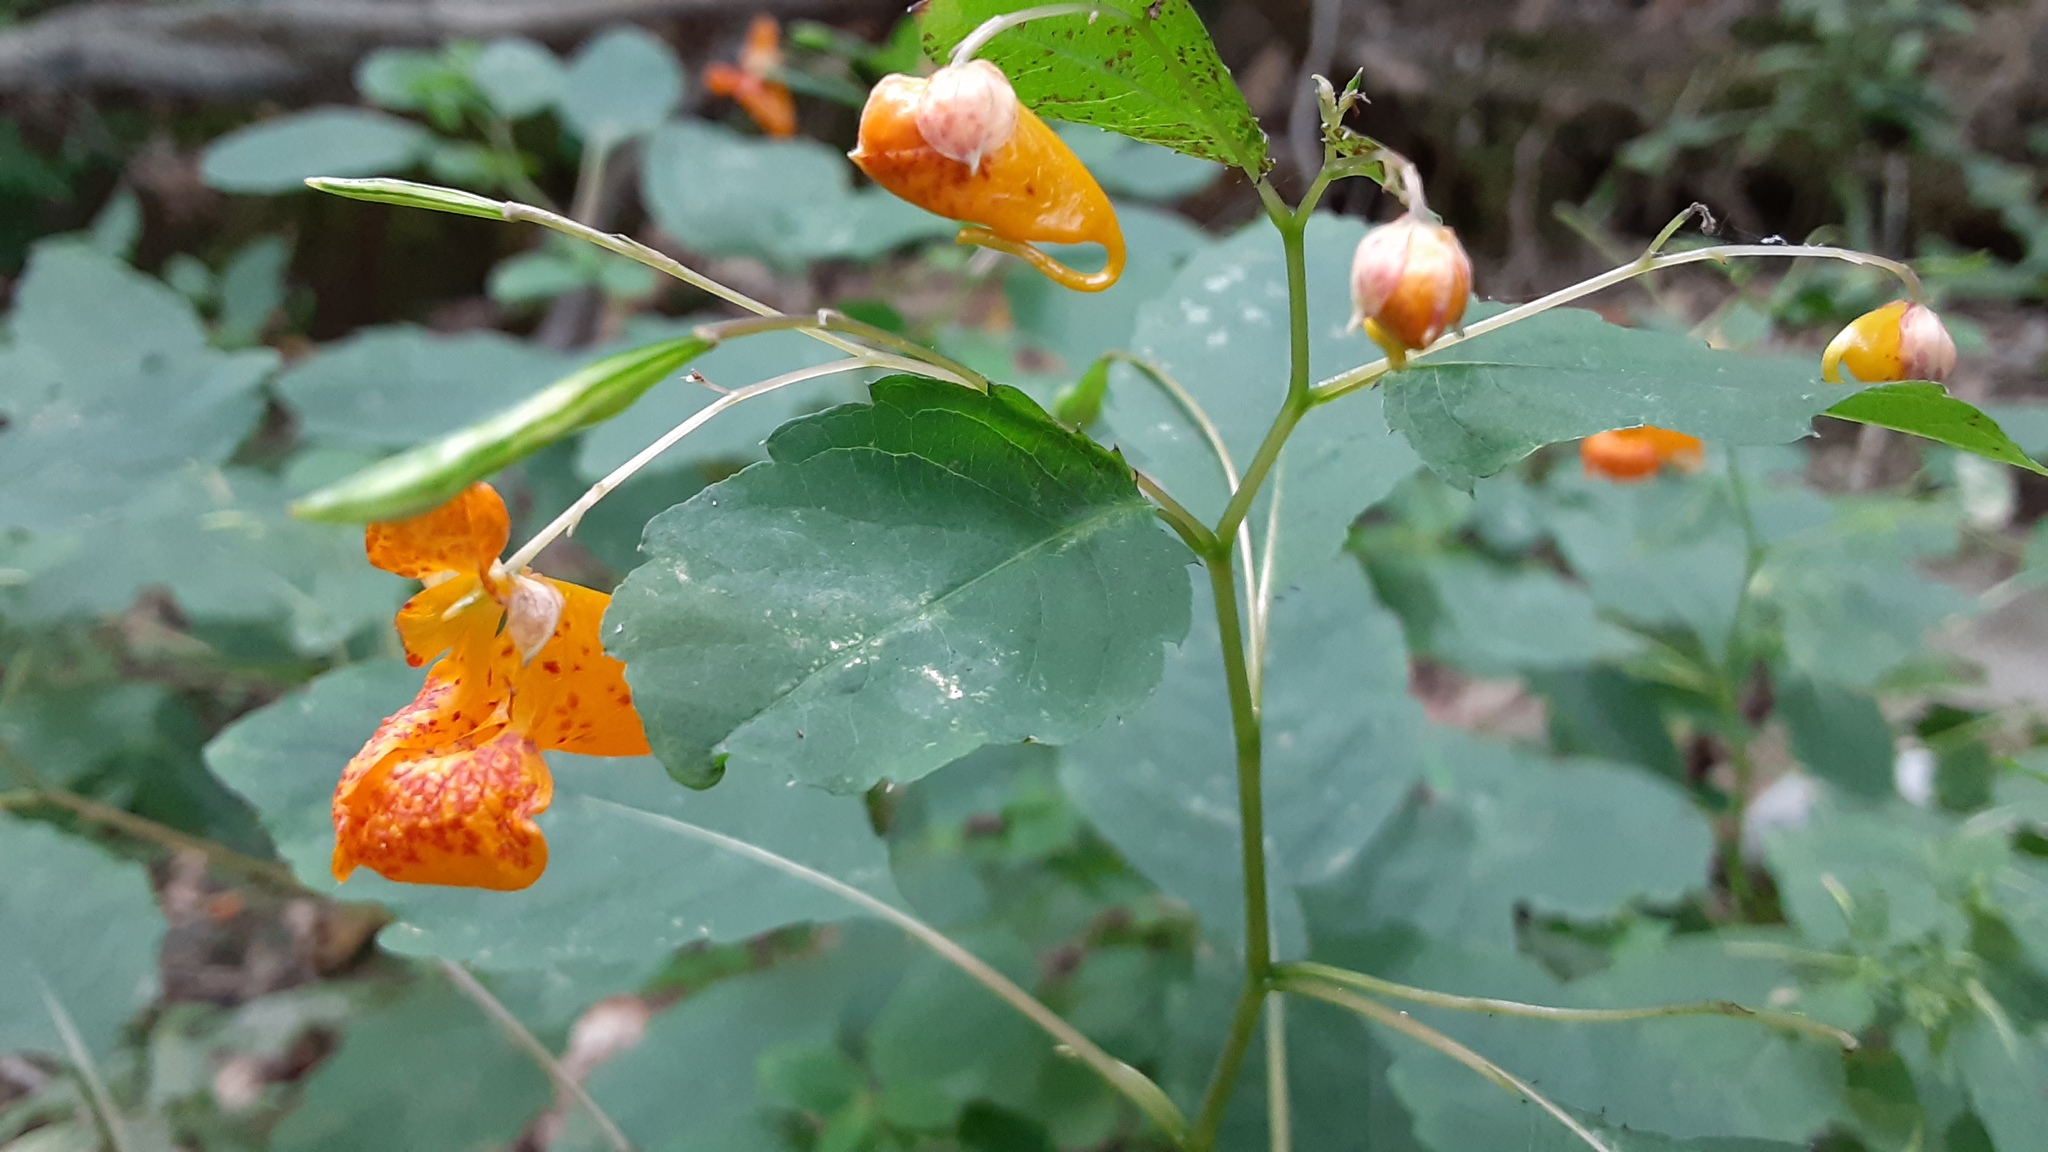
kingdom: Plantae
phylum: Tracheophyta
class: Magnoliopsida
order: Ericales
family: Balsaminaceae
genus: Impatiens
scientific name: Impatiens capensis
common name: Orange balsam
